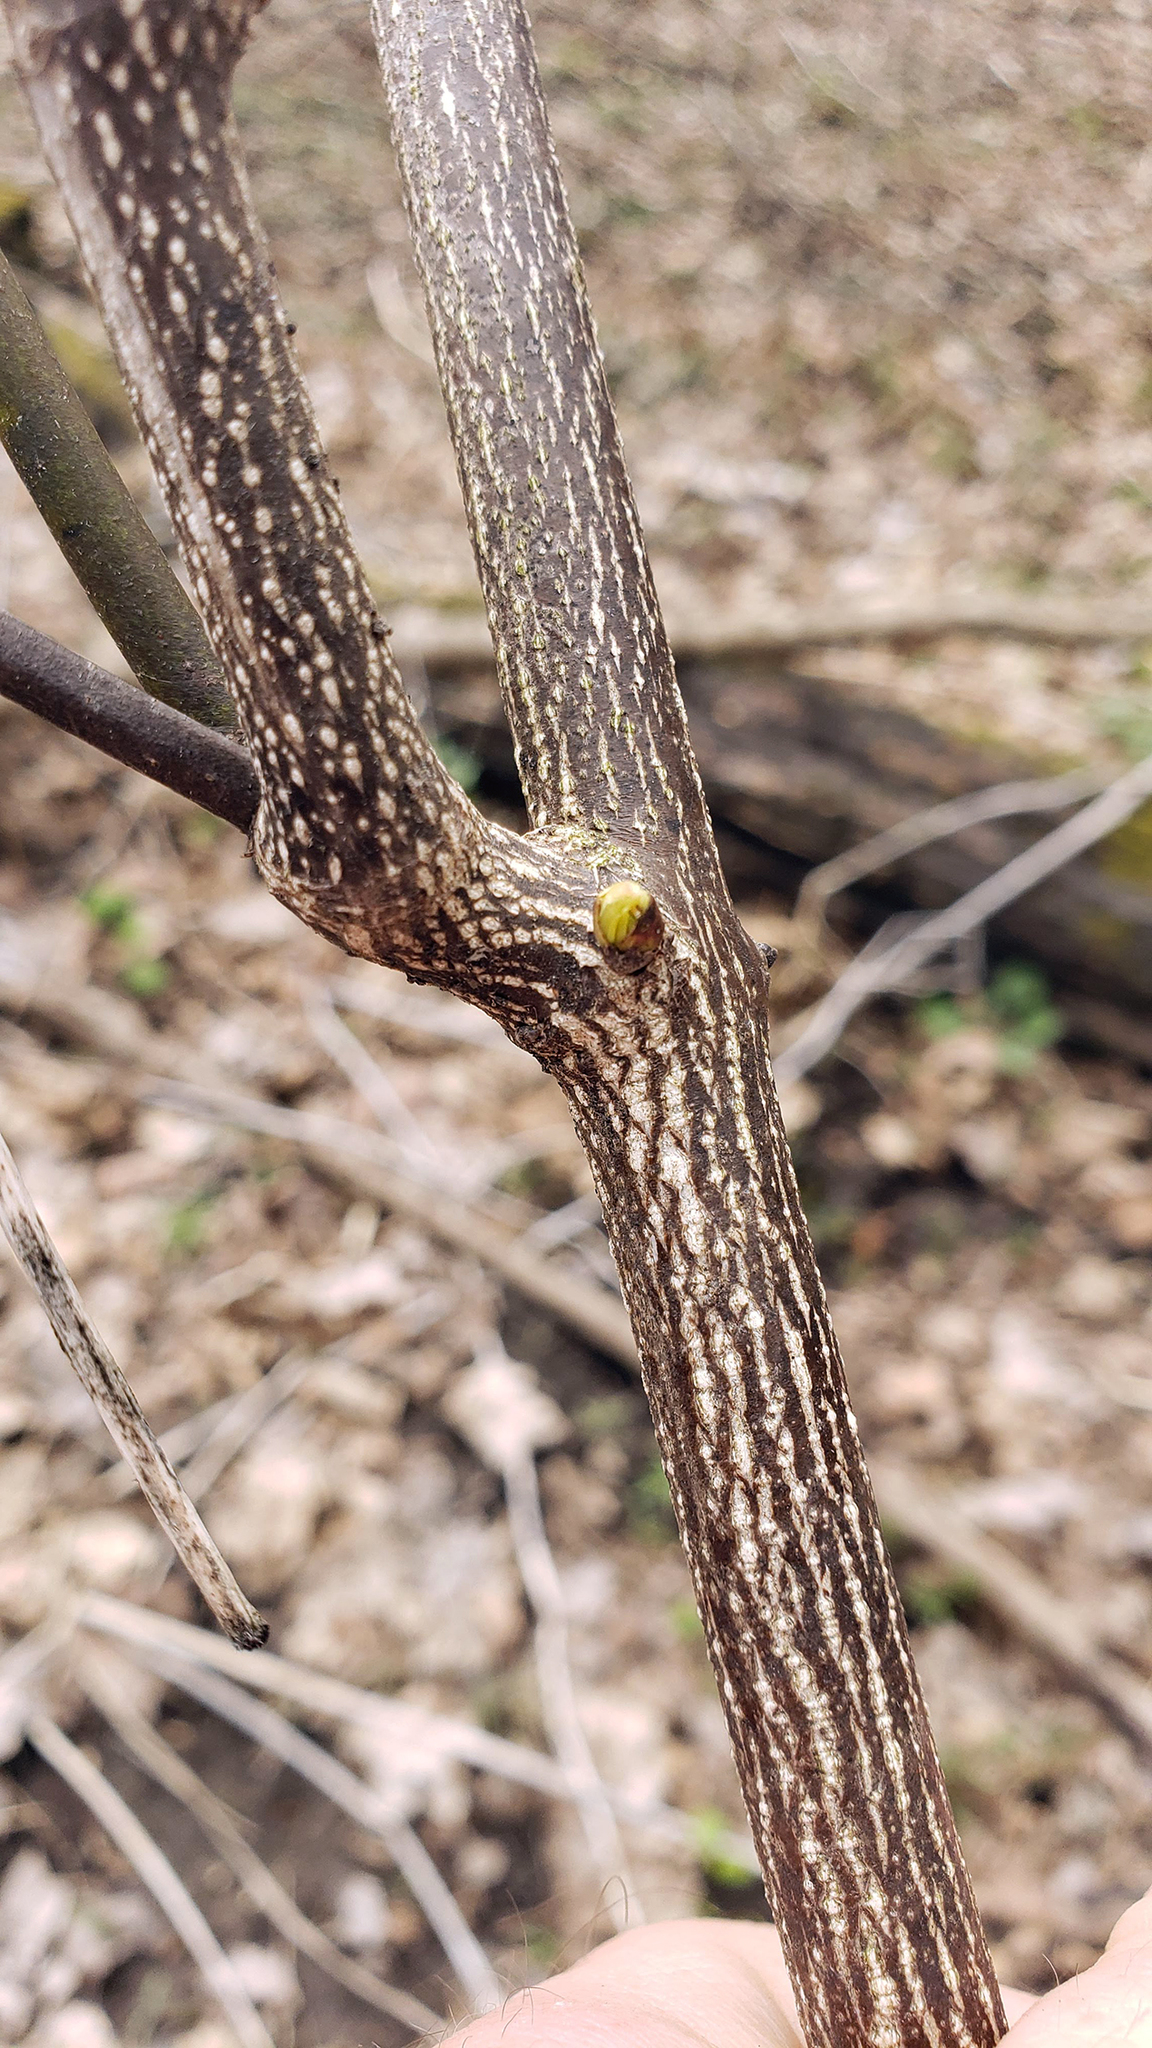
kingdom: Plantae
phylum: Tracheophyta
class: Magnoliopsida
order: Crossosomatales
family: Staphyleaceae
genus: Staphylea
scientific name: Staphylea trifolia
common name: American bladdernut
